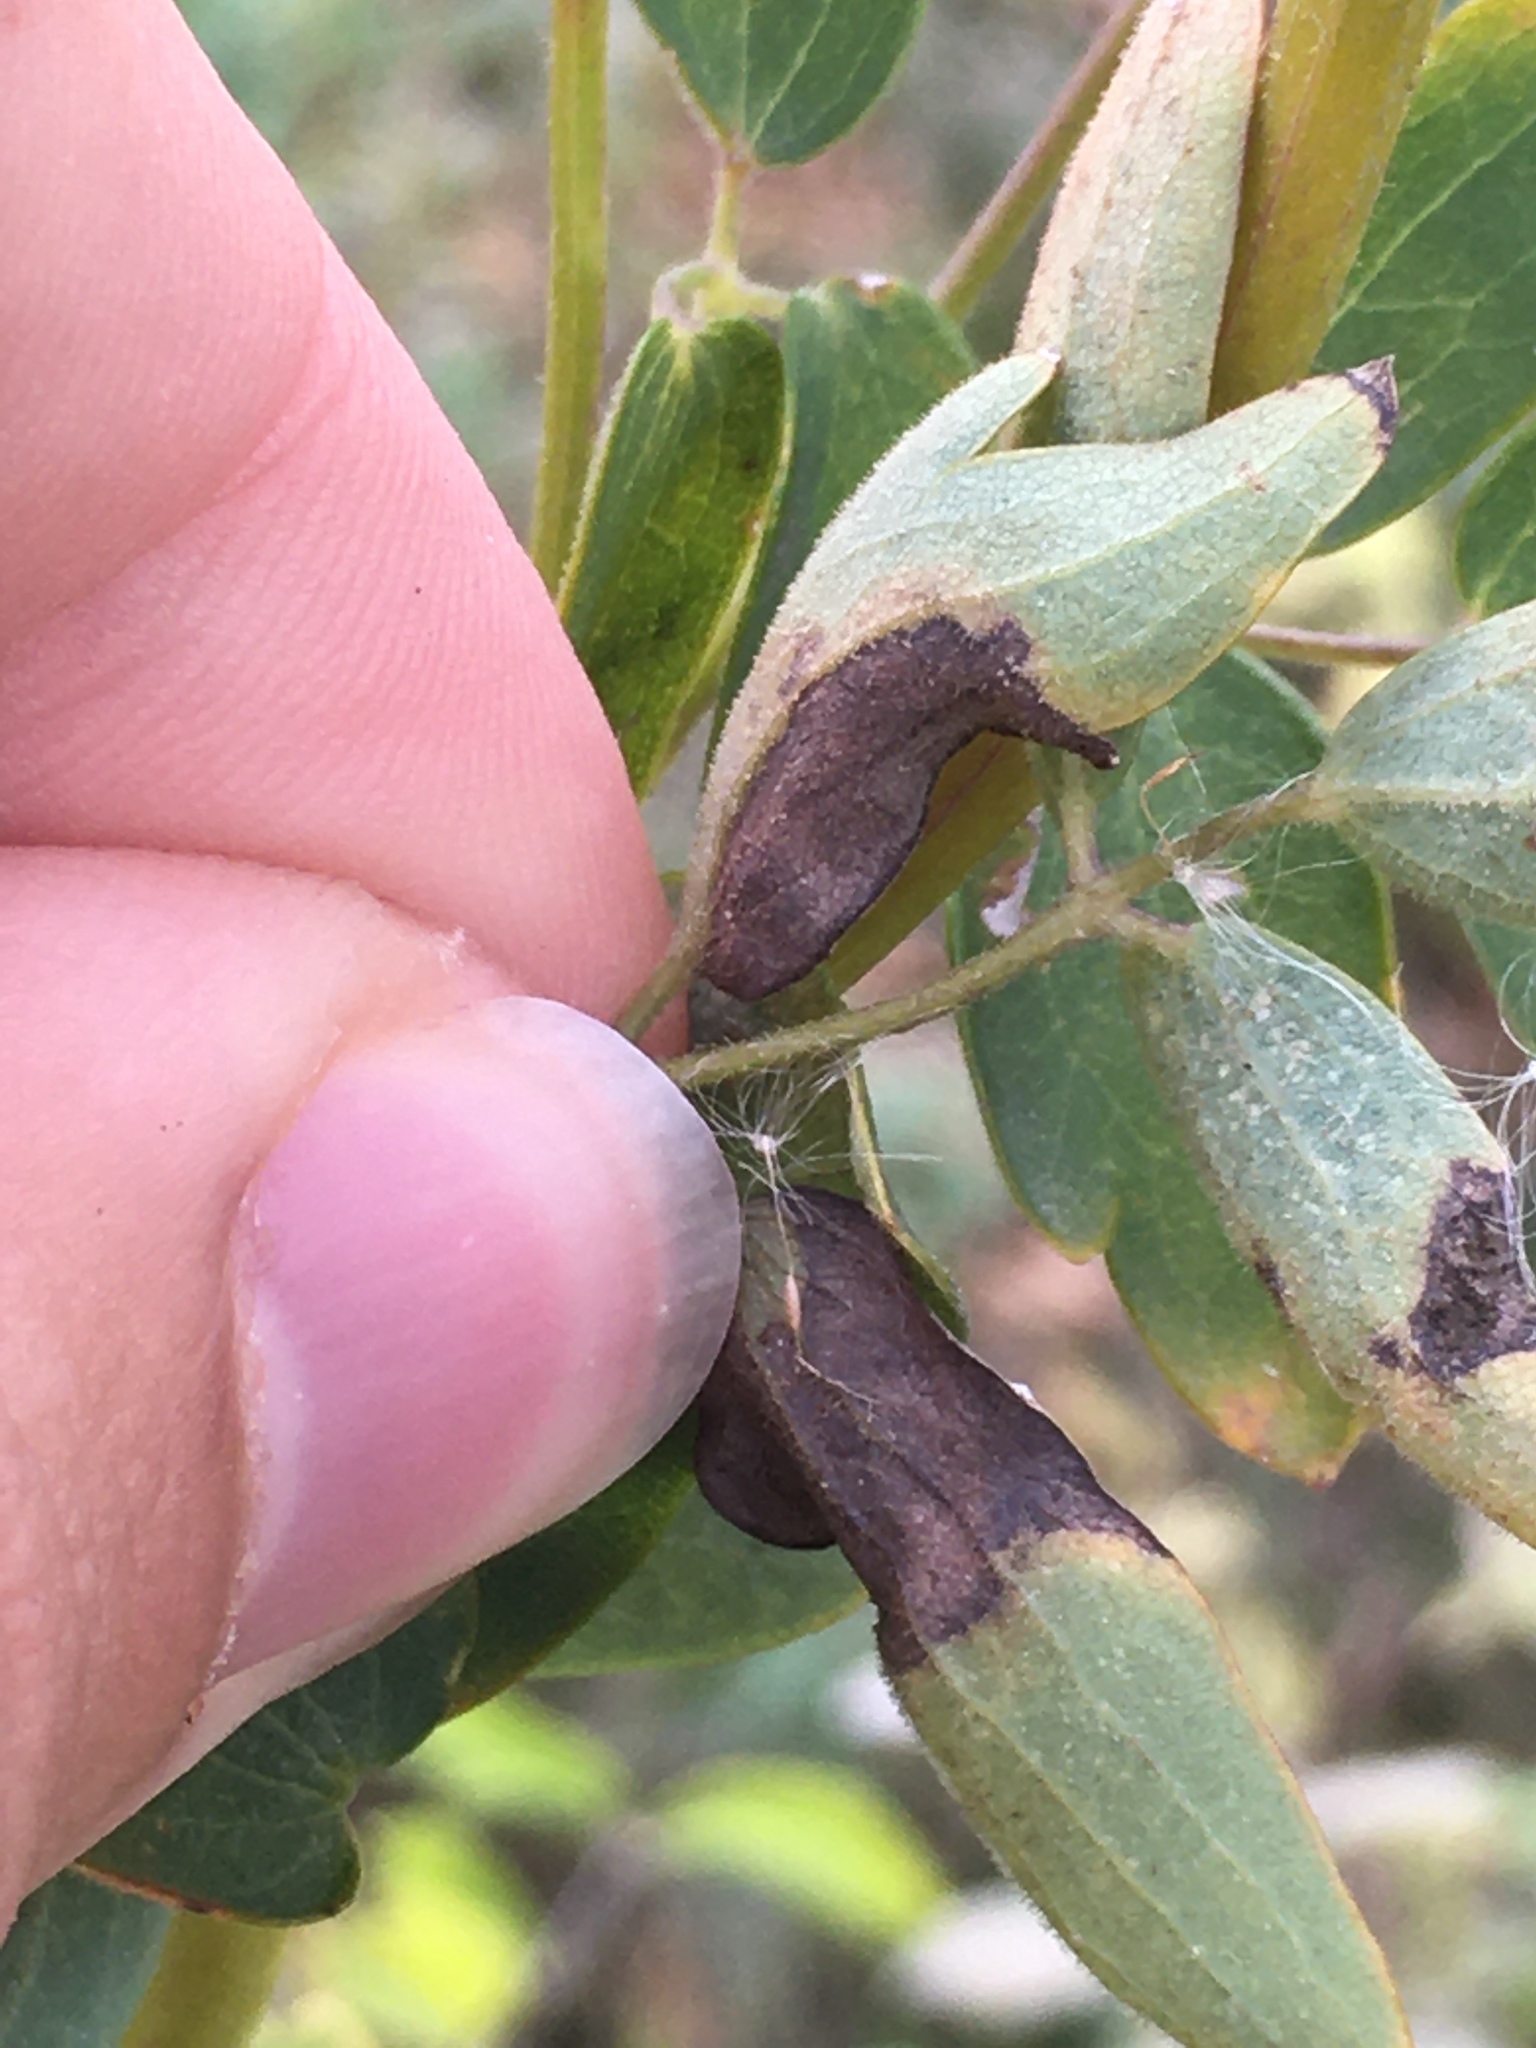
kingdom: Animalia
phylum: Arthropoda
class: Insecta
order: Diptera
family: Agromyzidae
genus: Phytomyza
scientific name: Phytomyza plumiseta
